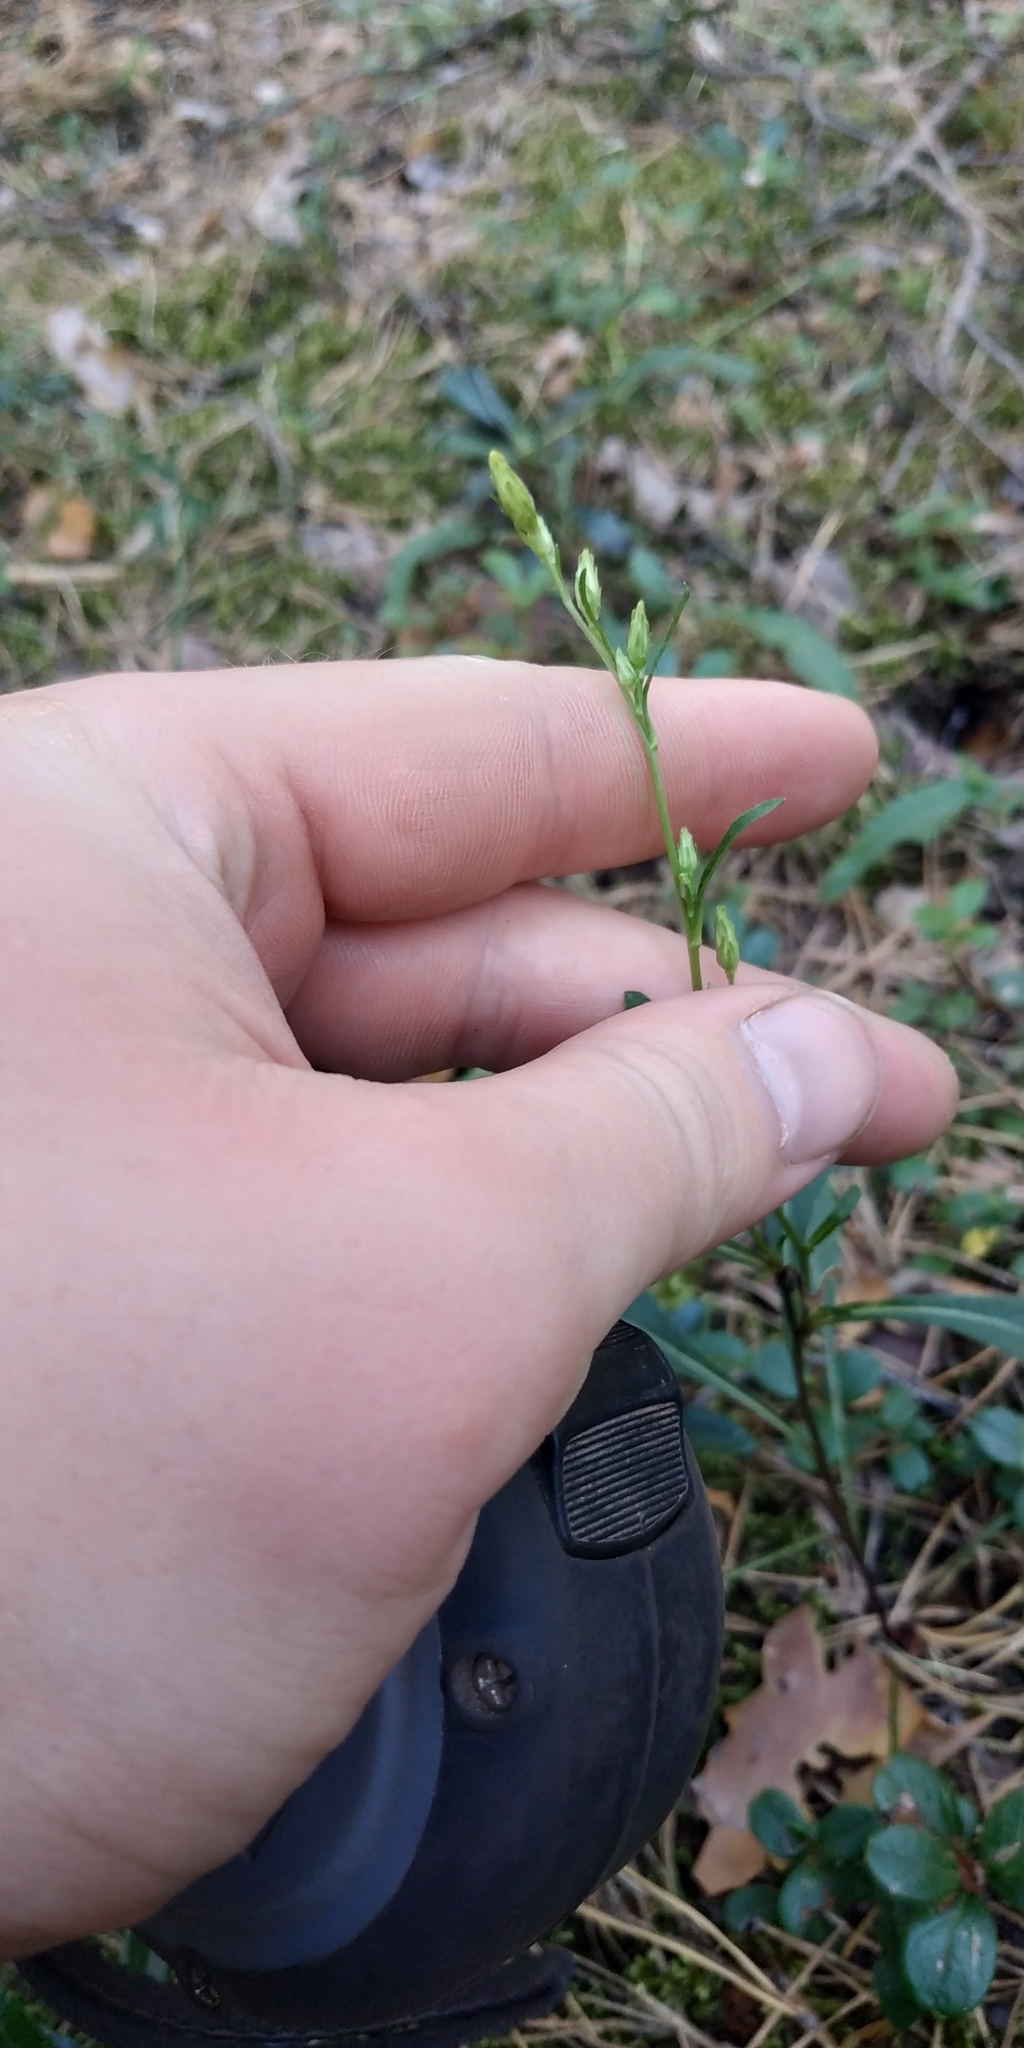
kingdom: Plantae
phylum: Tracheophyta
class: Magnoliopsida
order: Asterales
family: Asteraceae
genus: Solidago
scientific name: Solidago virgaurea
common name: Goldenrod
